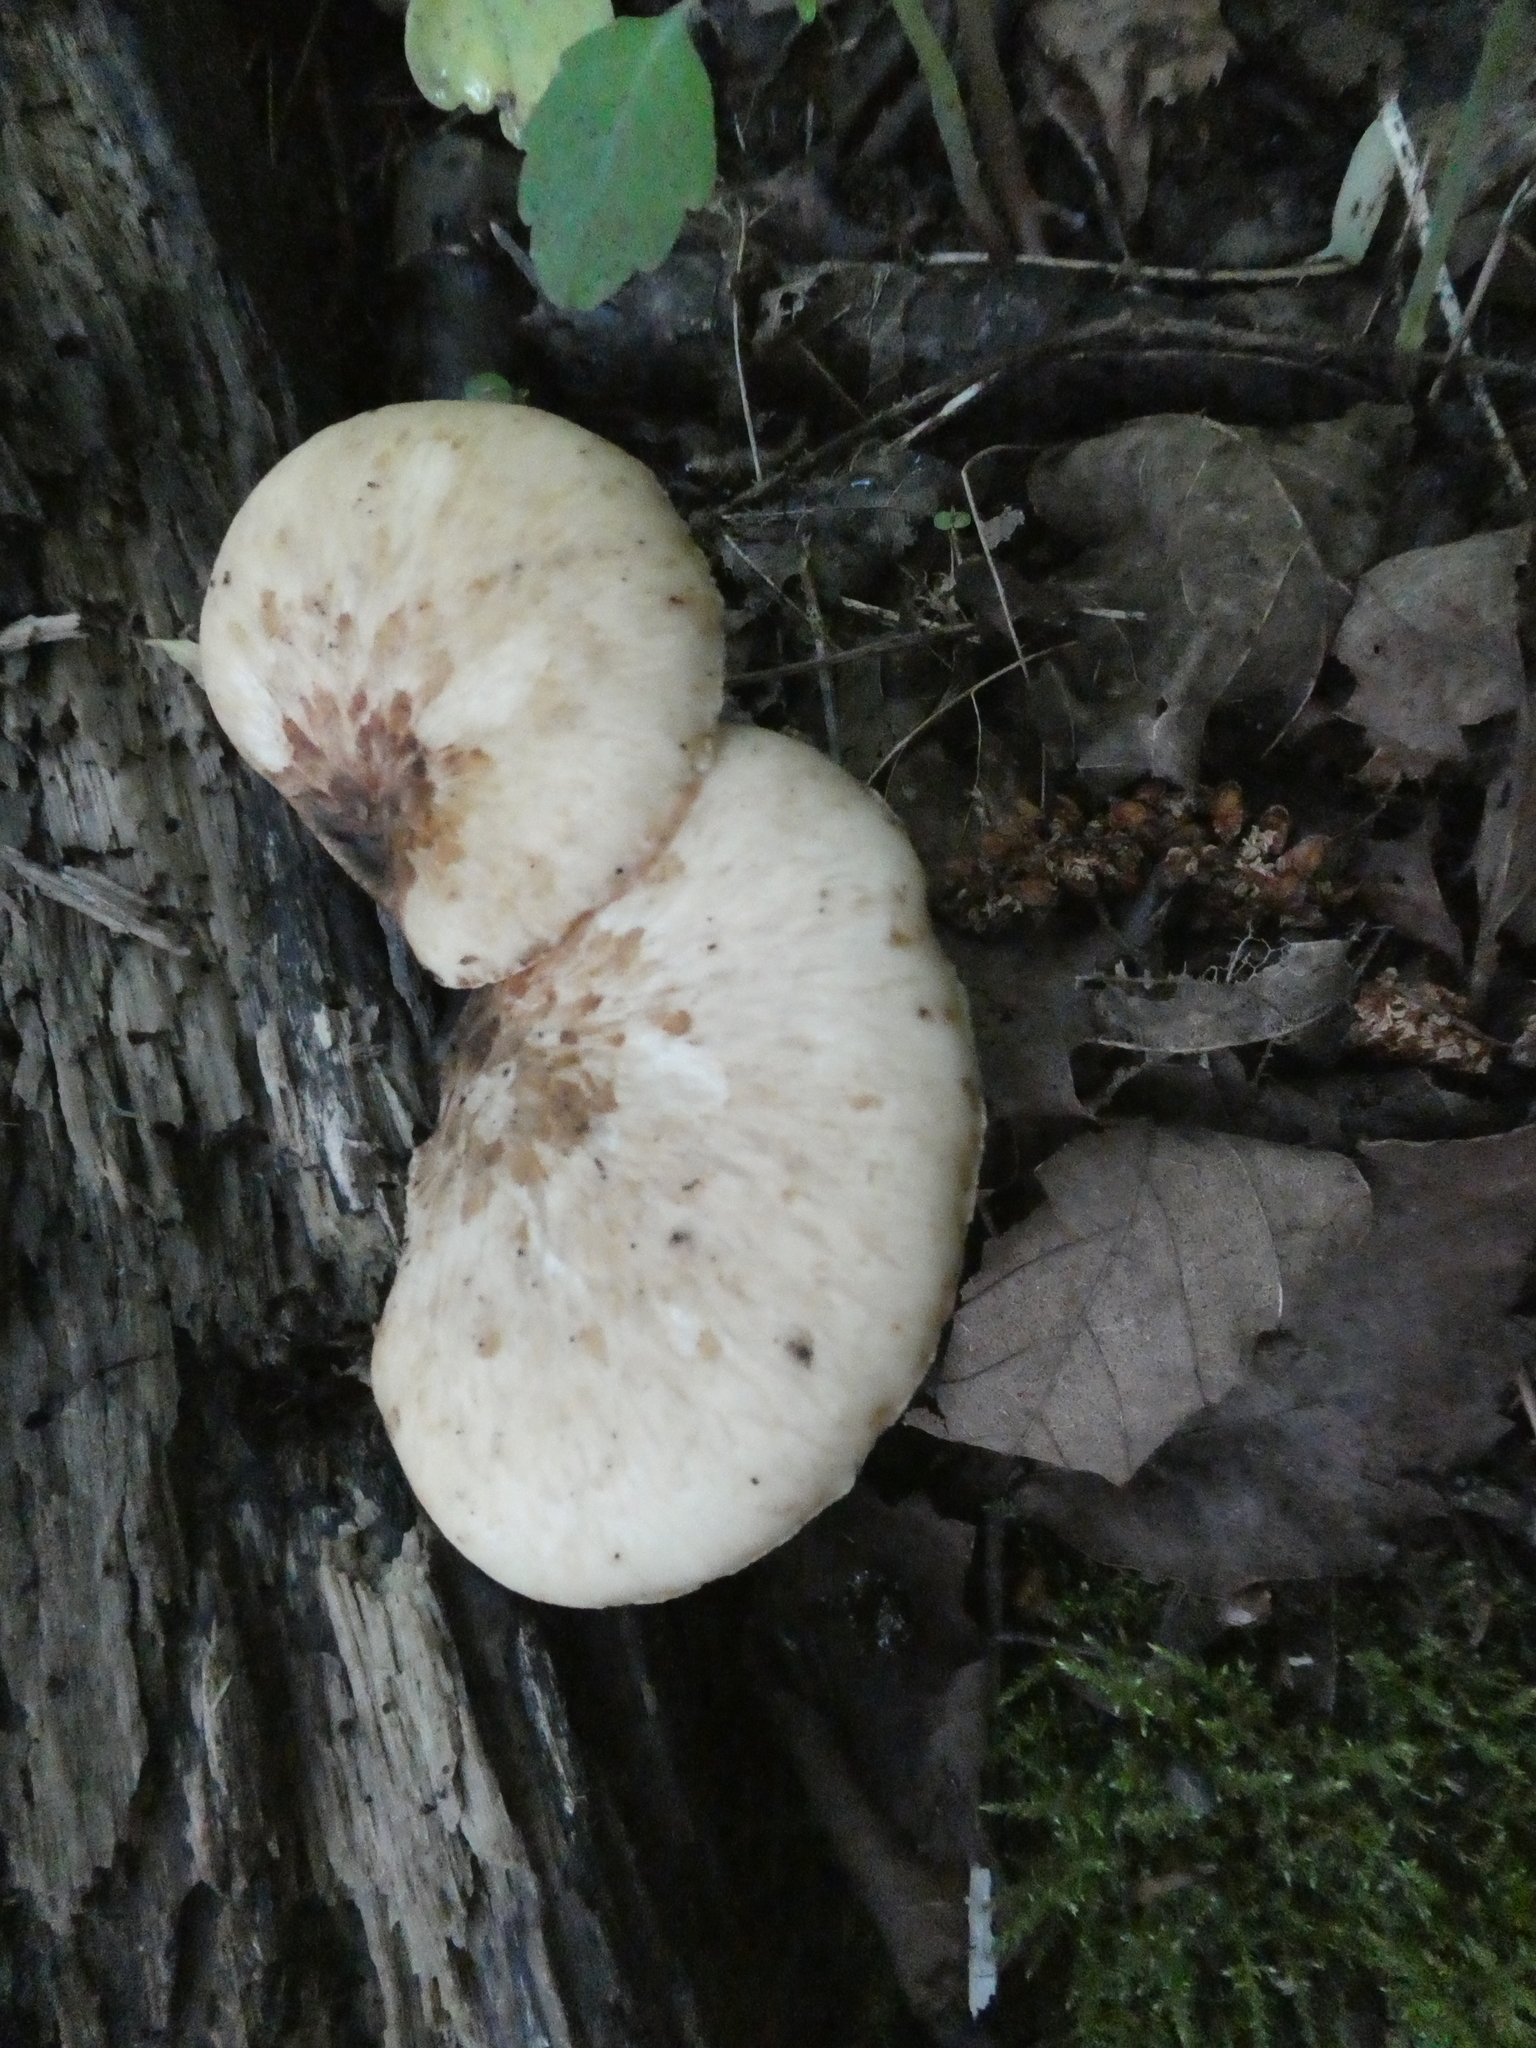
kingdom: Fungi
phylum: Basidiomycota
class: Agaricomycetes
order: Polyporales
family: Polyporaceae
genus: Cerioporus
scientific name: Cerioporus squamosus
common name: Dryad's saddle
